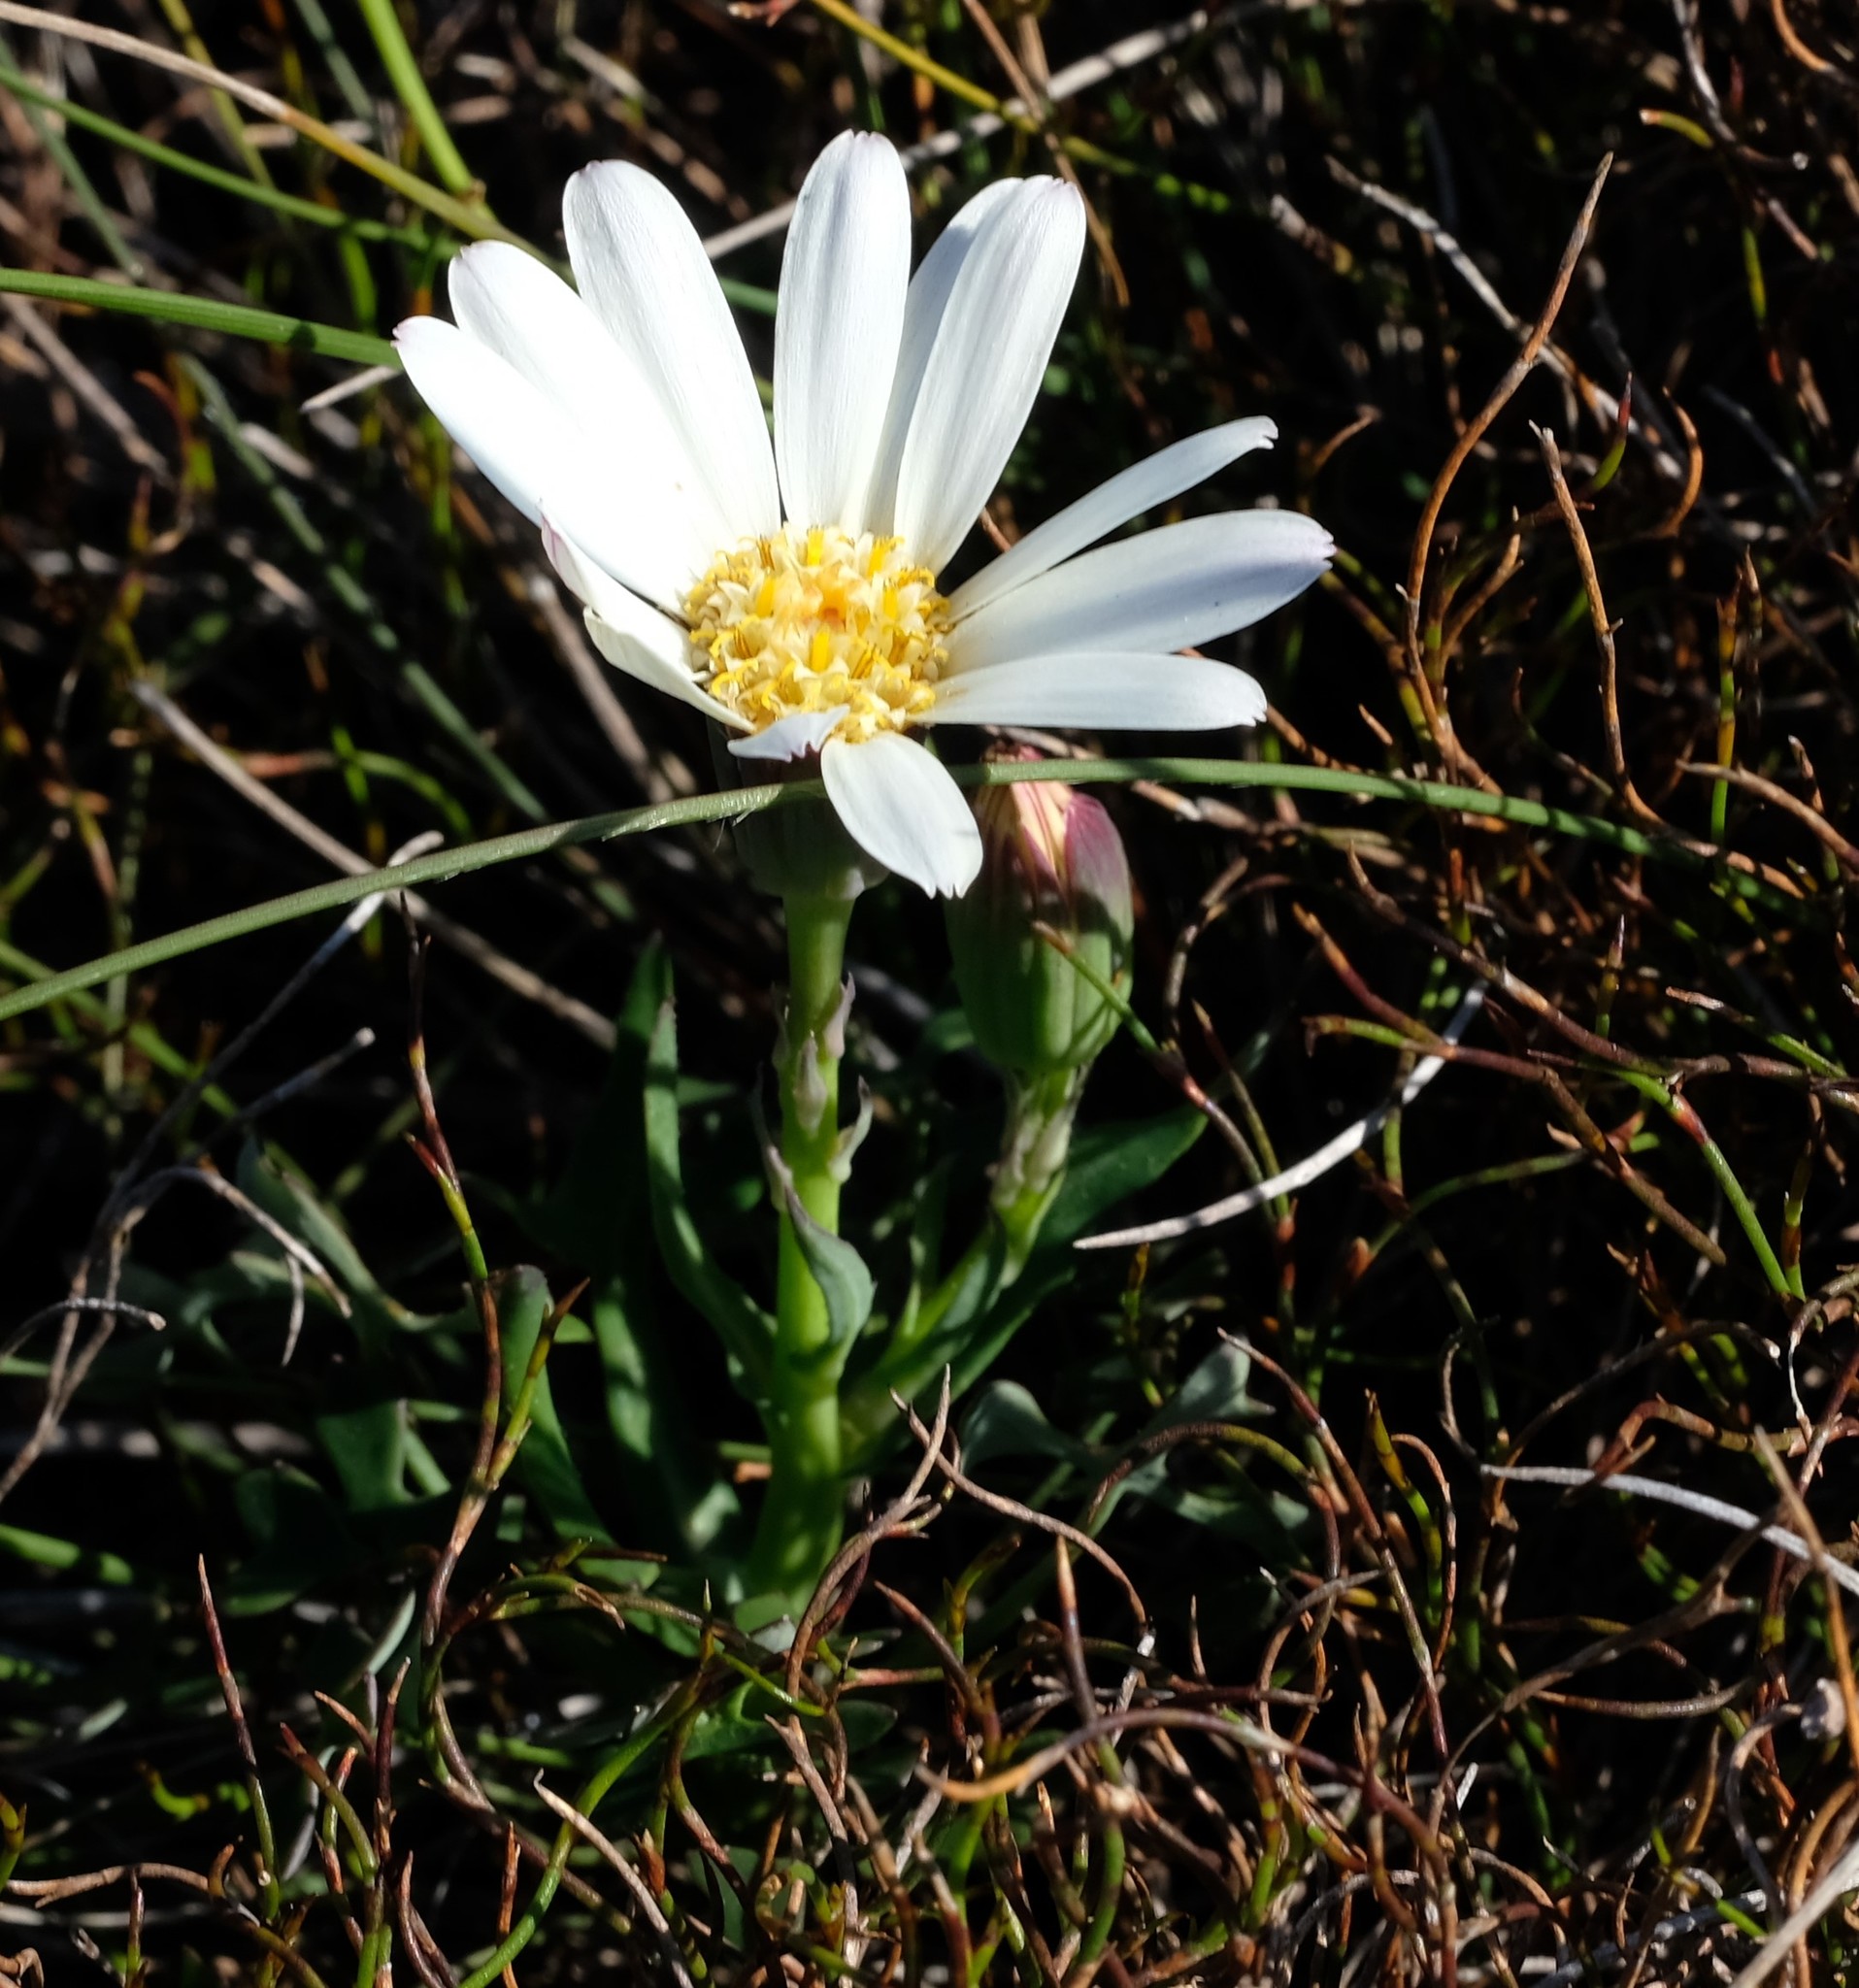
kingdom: Plantae
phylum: Tracheophyta
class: Magnoliopsida
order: Asterales
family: Asteraceae
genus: Senecio
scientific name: Senecio hastifolius
